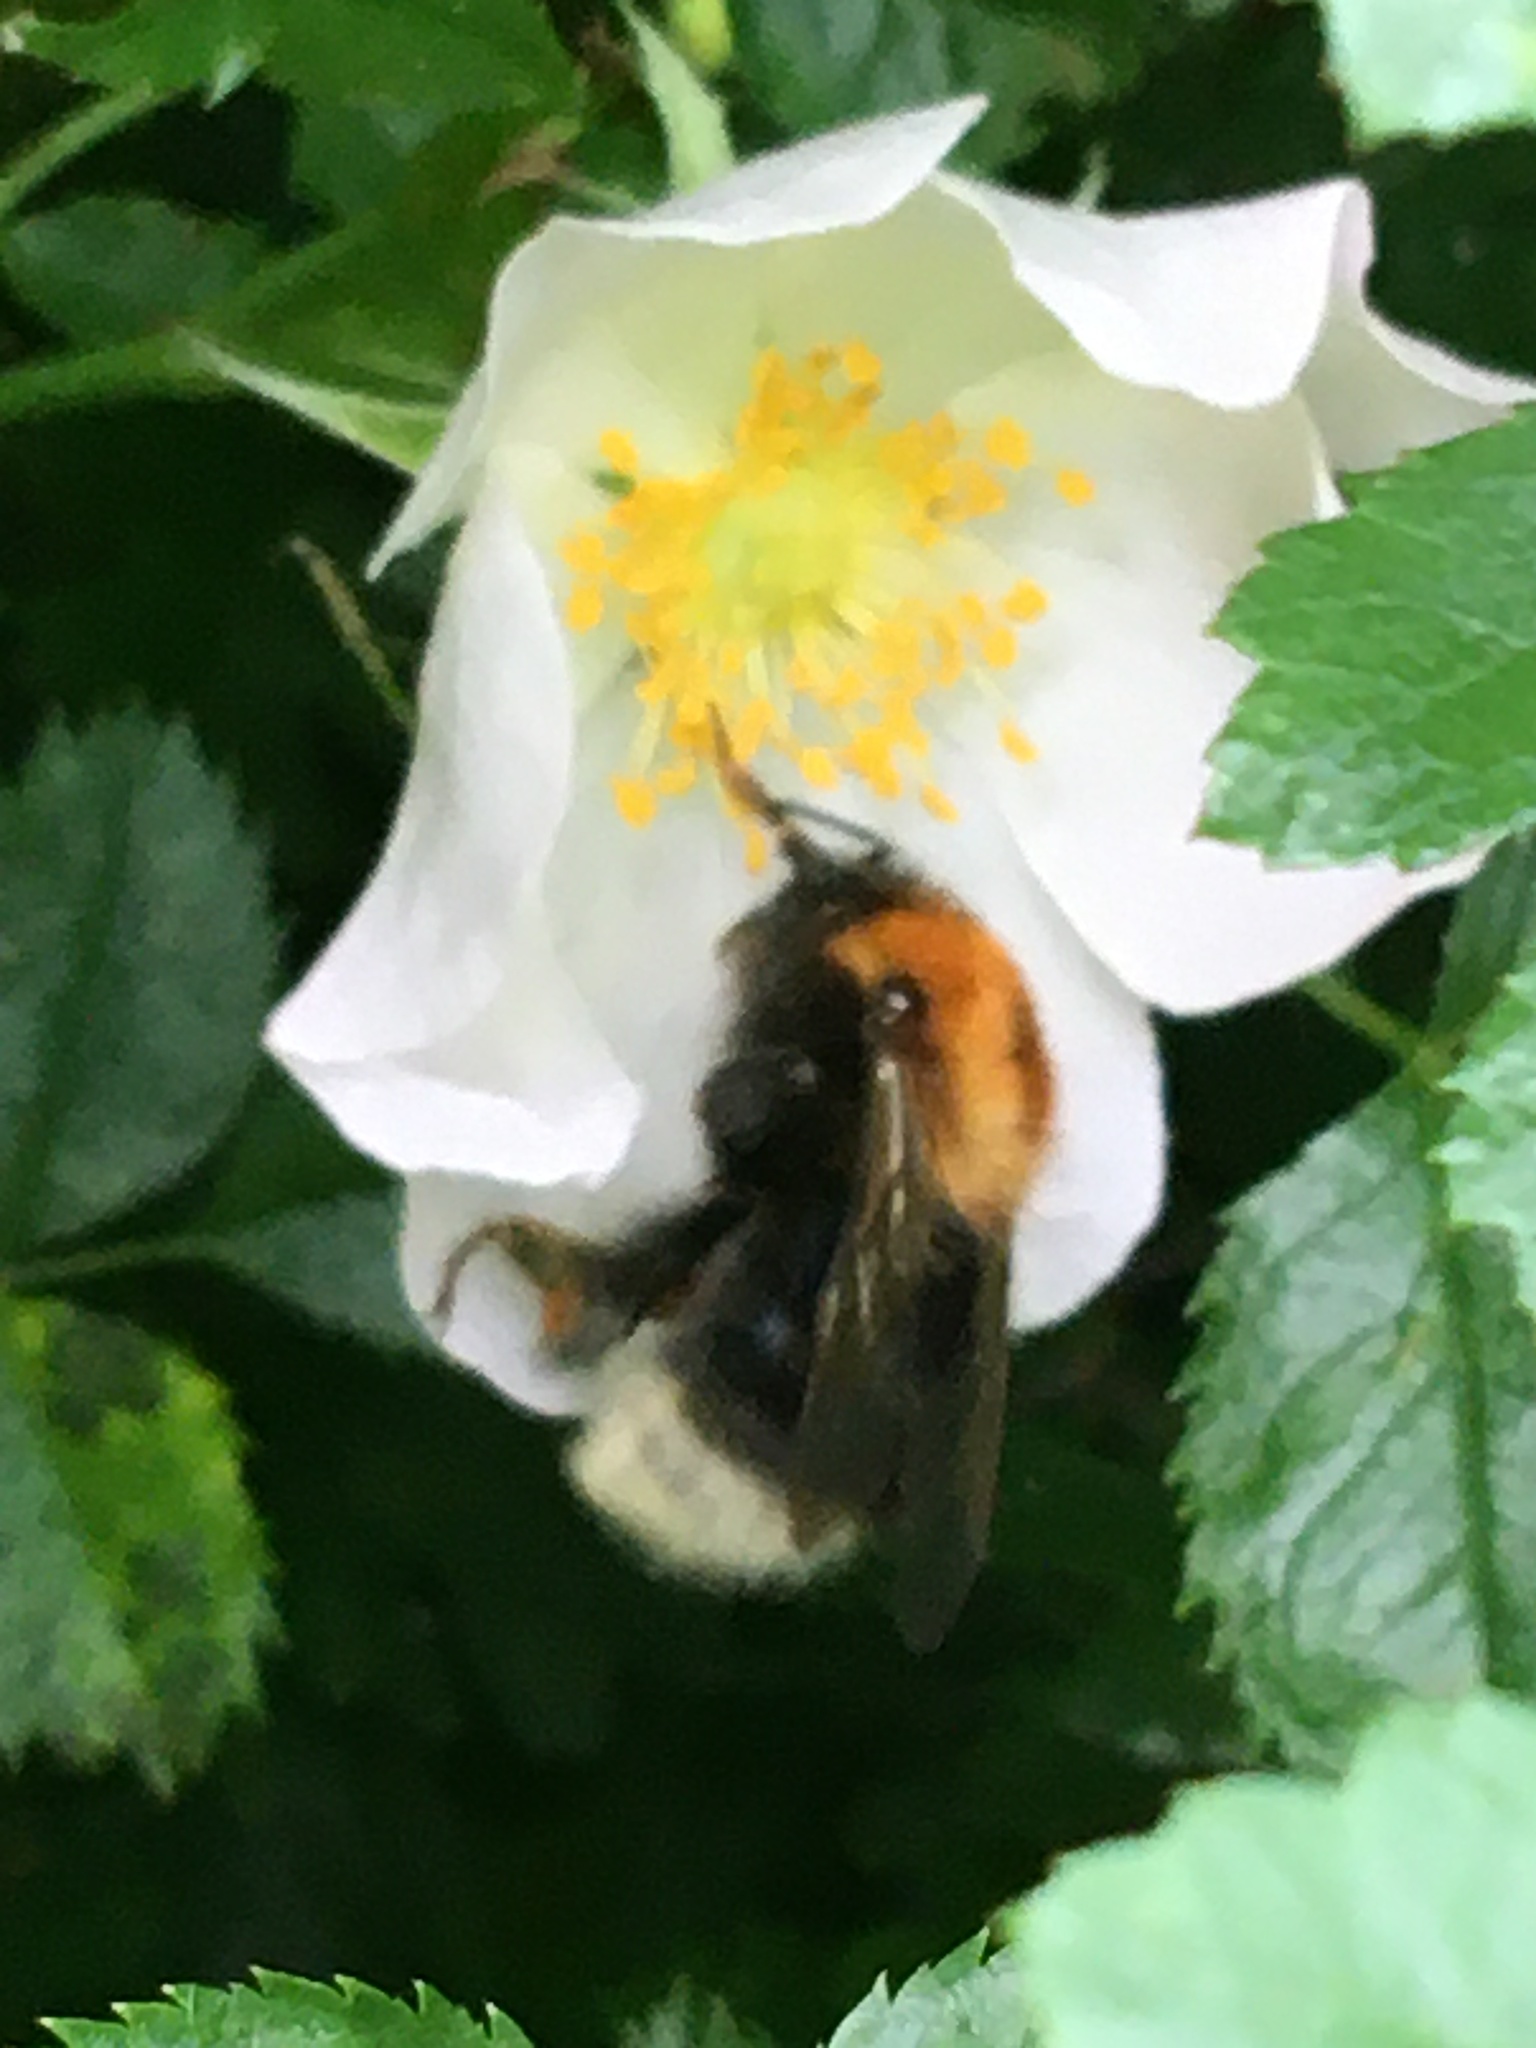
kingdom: Animalia
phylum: Arthropoda
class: Insecta
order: Hymenoptera
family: Apidae
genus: Bombus
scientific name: Bombus hypnorum
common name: New garden bumblebee
